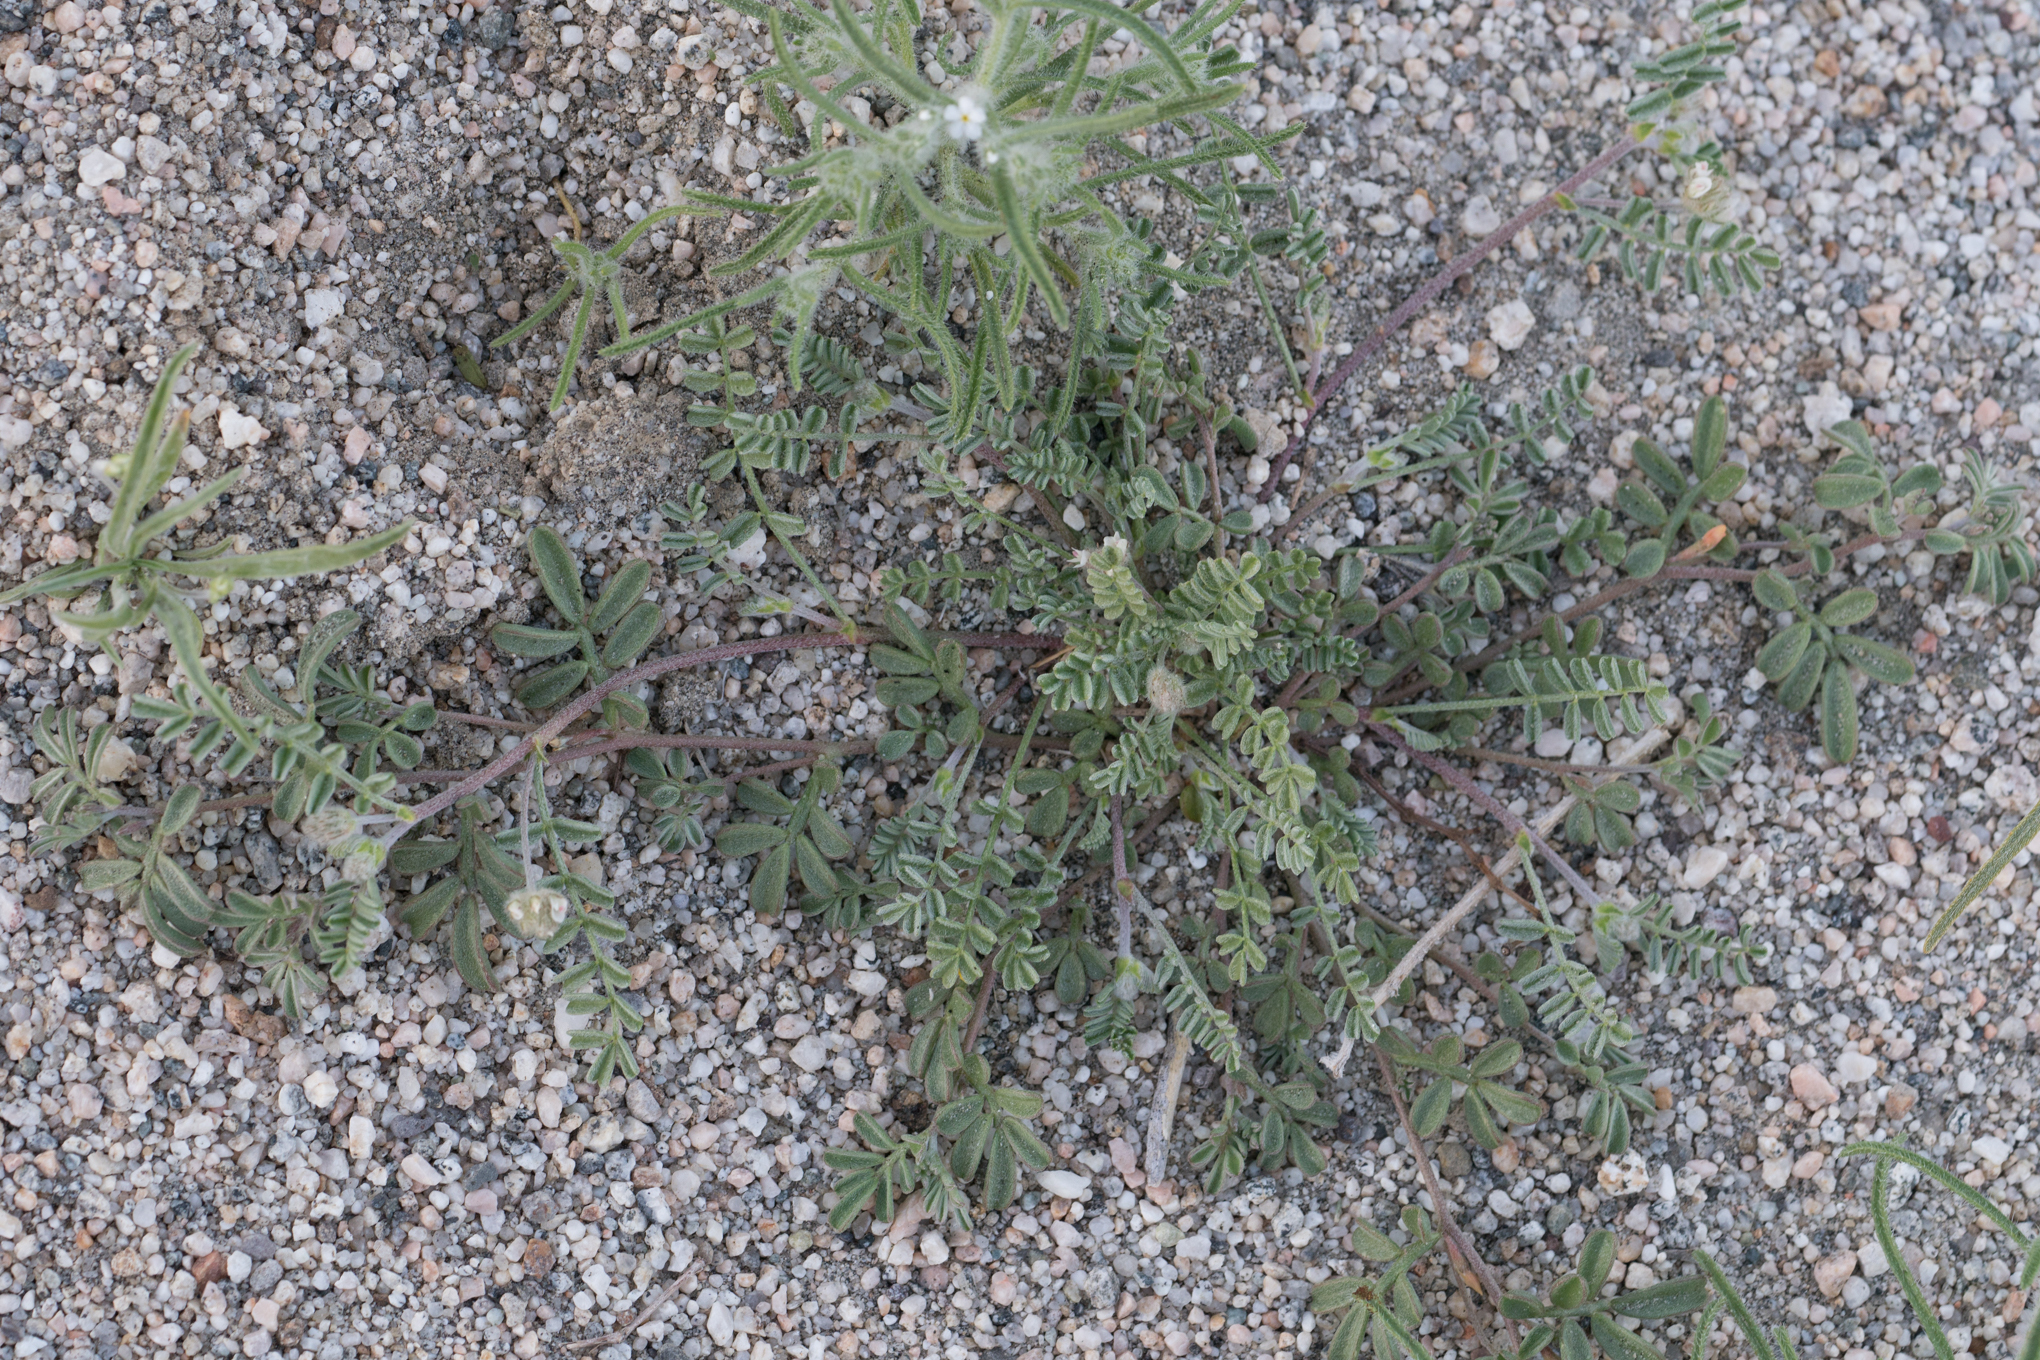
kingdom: Plantae
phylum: Tracheophyta
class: Magnoliopsida
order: Fabales
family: Fabaceae
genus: Dalea
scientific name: Dalea mollis
